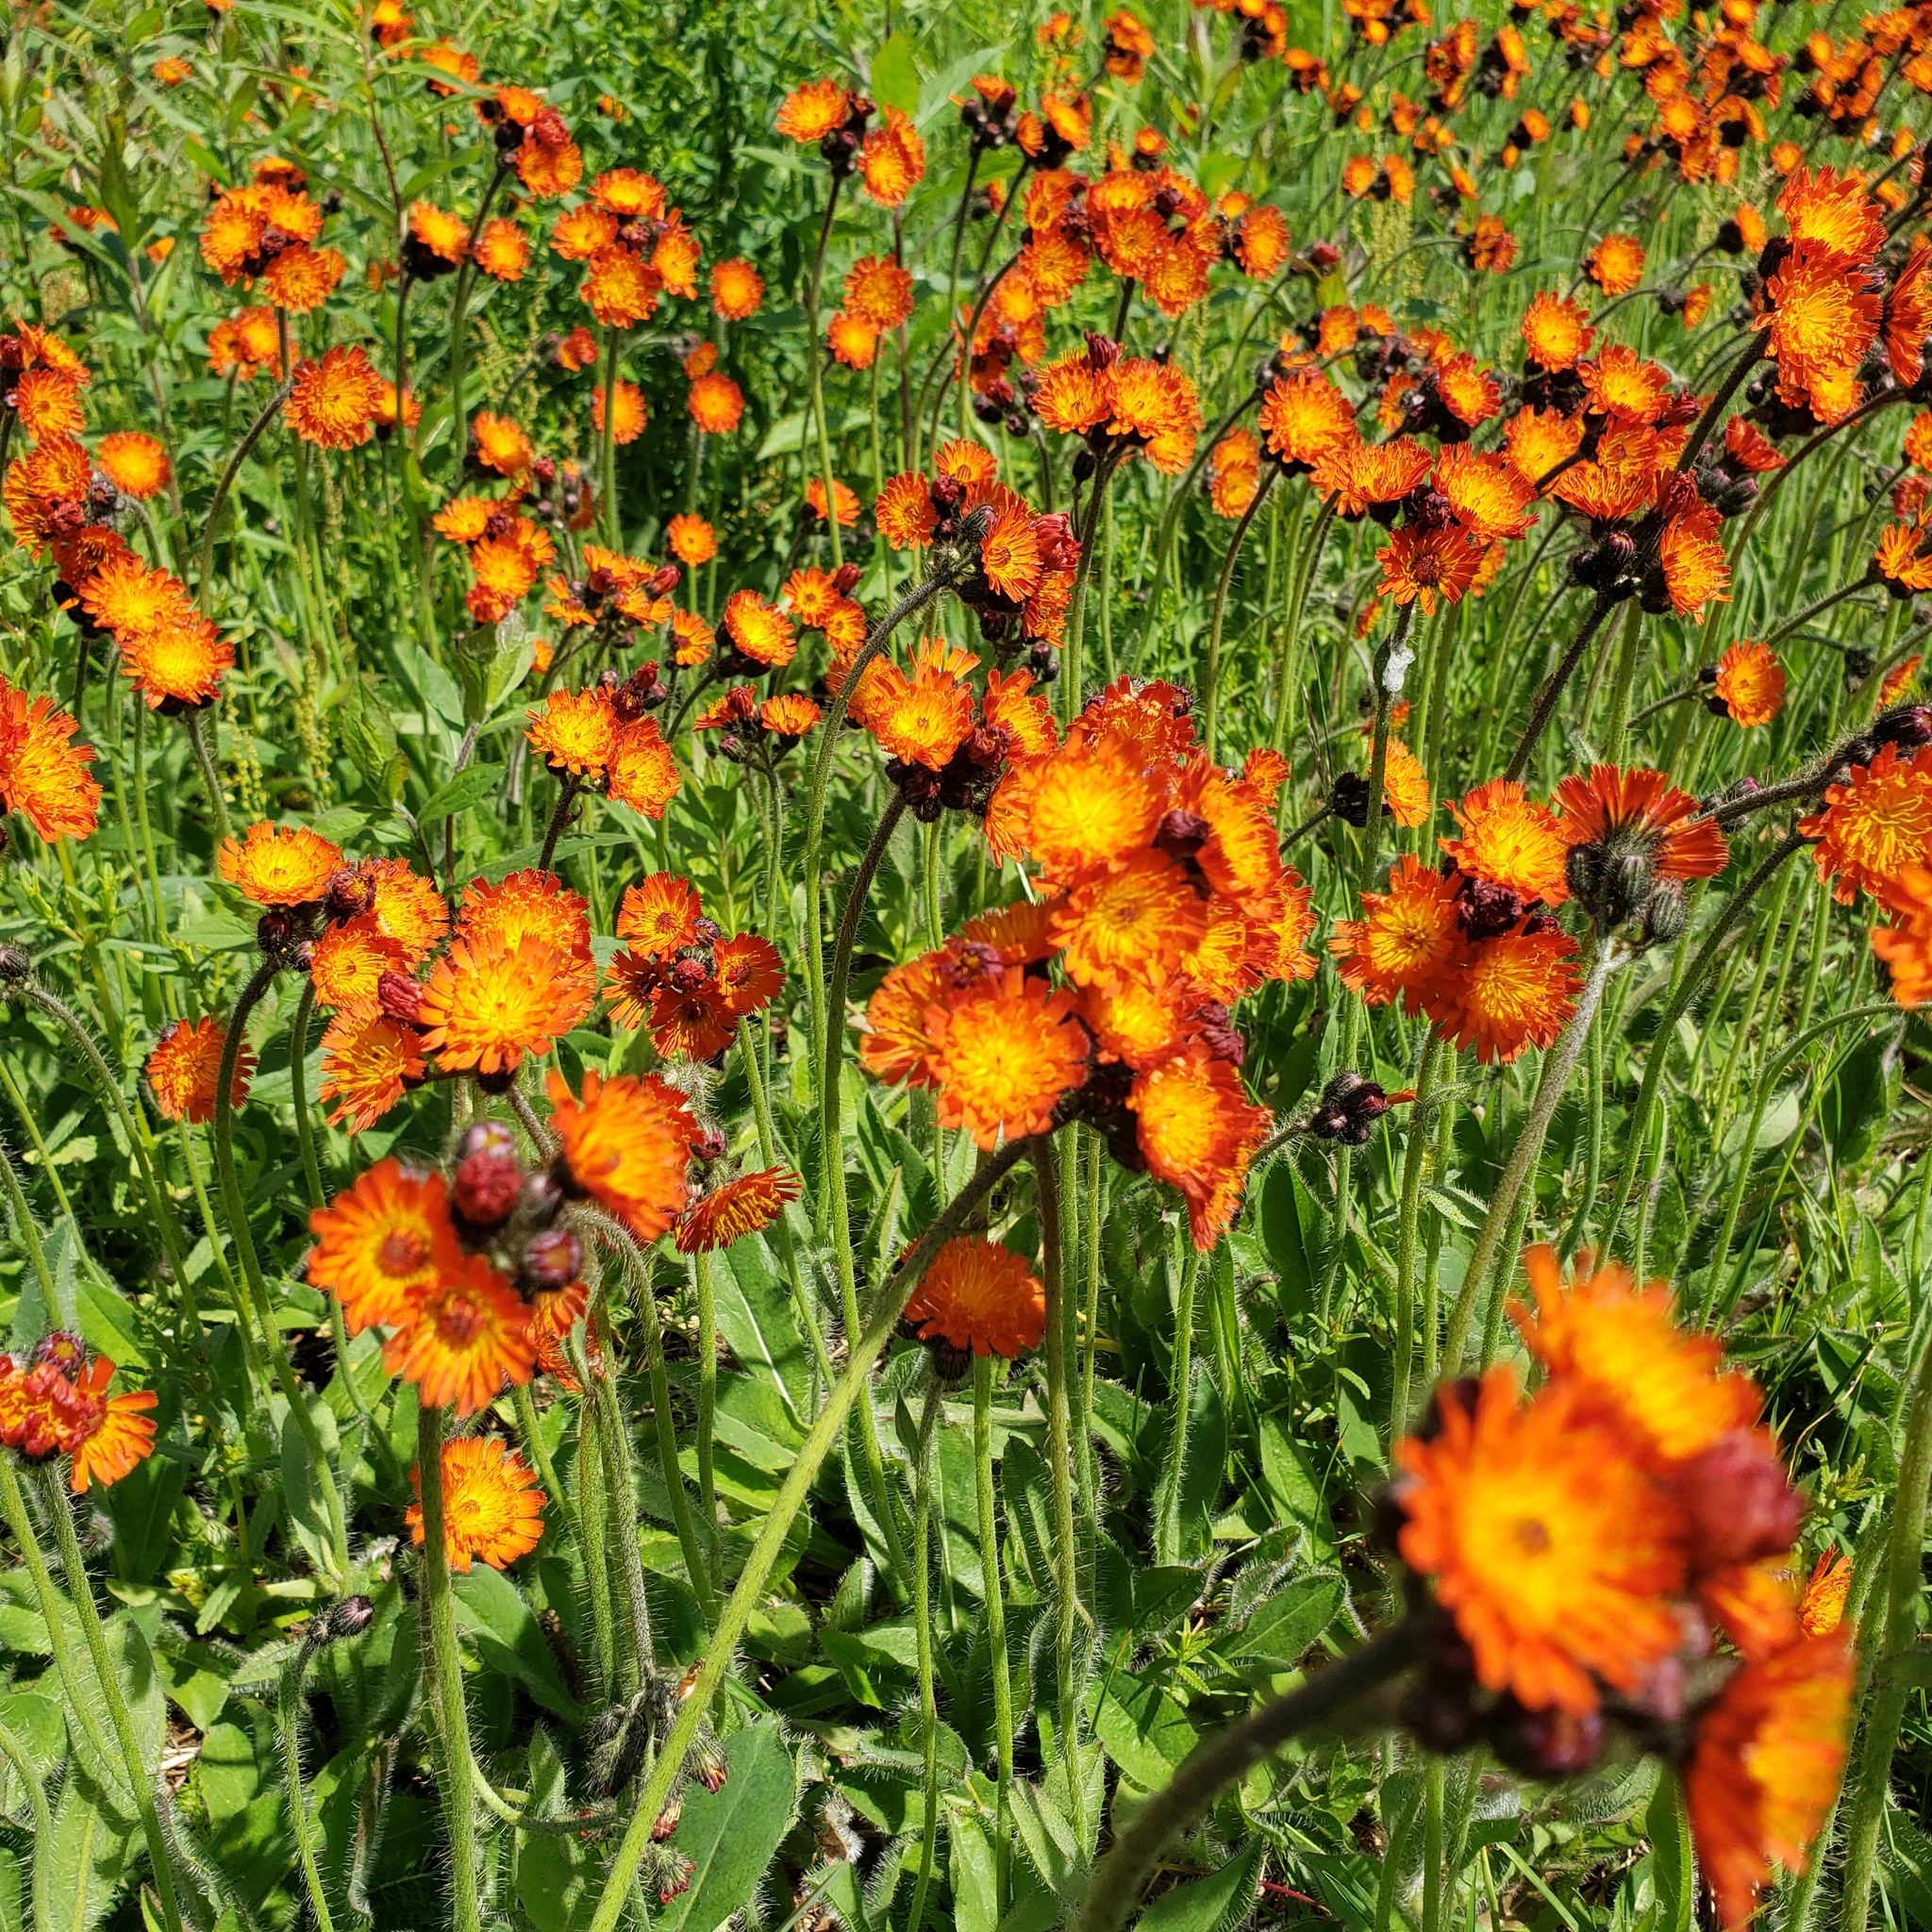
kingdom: Plantae
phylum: Tracheophyta
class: Magnoliopsida
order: Asterales
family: Asteraceae
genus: Pilosella
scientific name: Pilosella aurantiaca
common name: Fox-and-cubs
